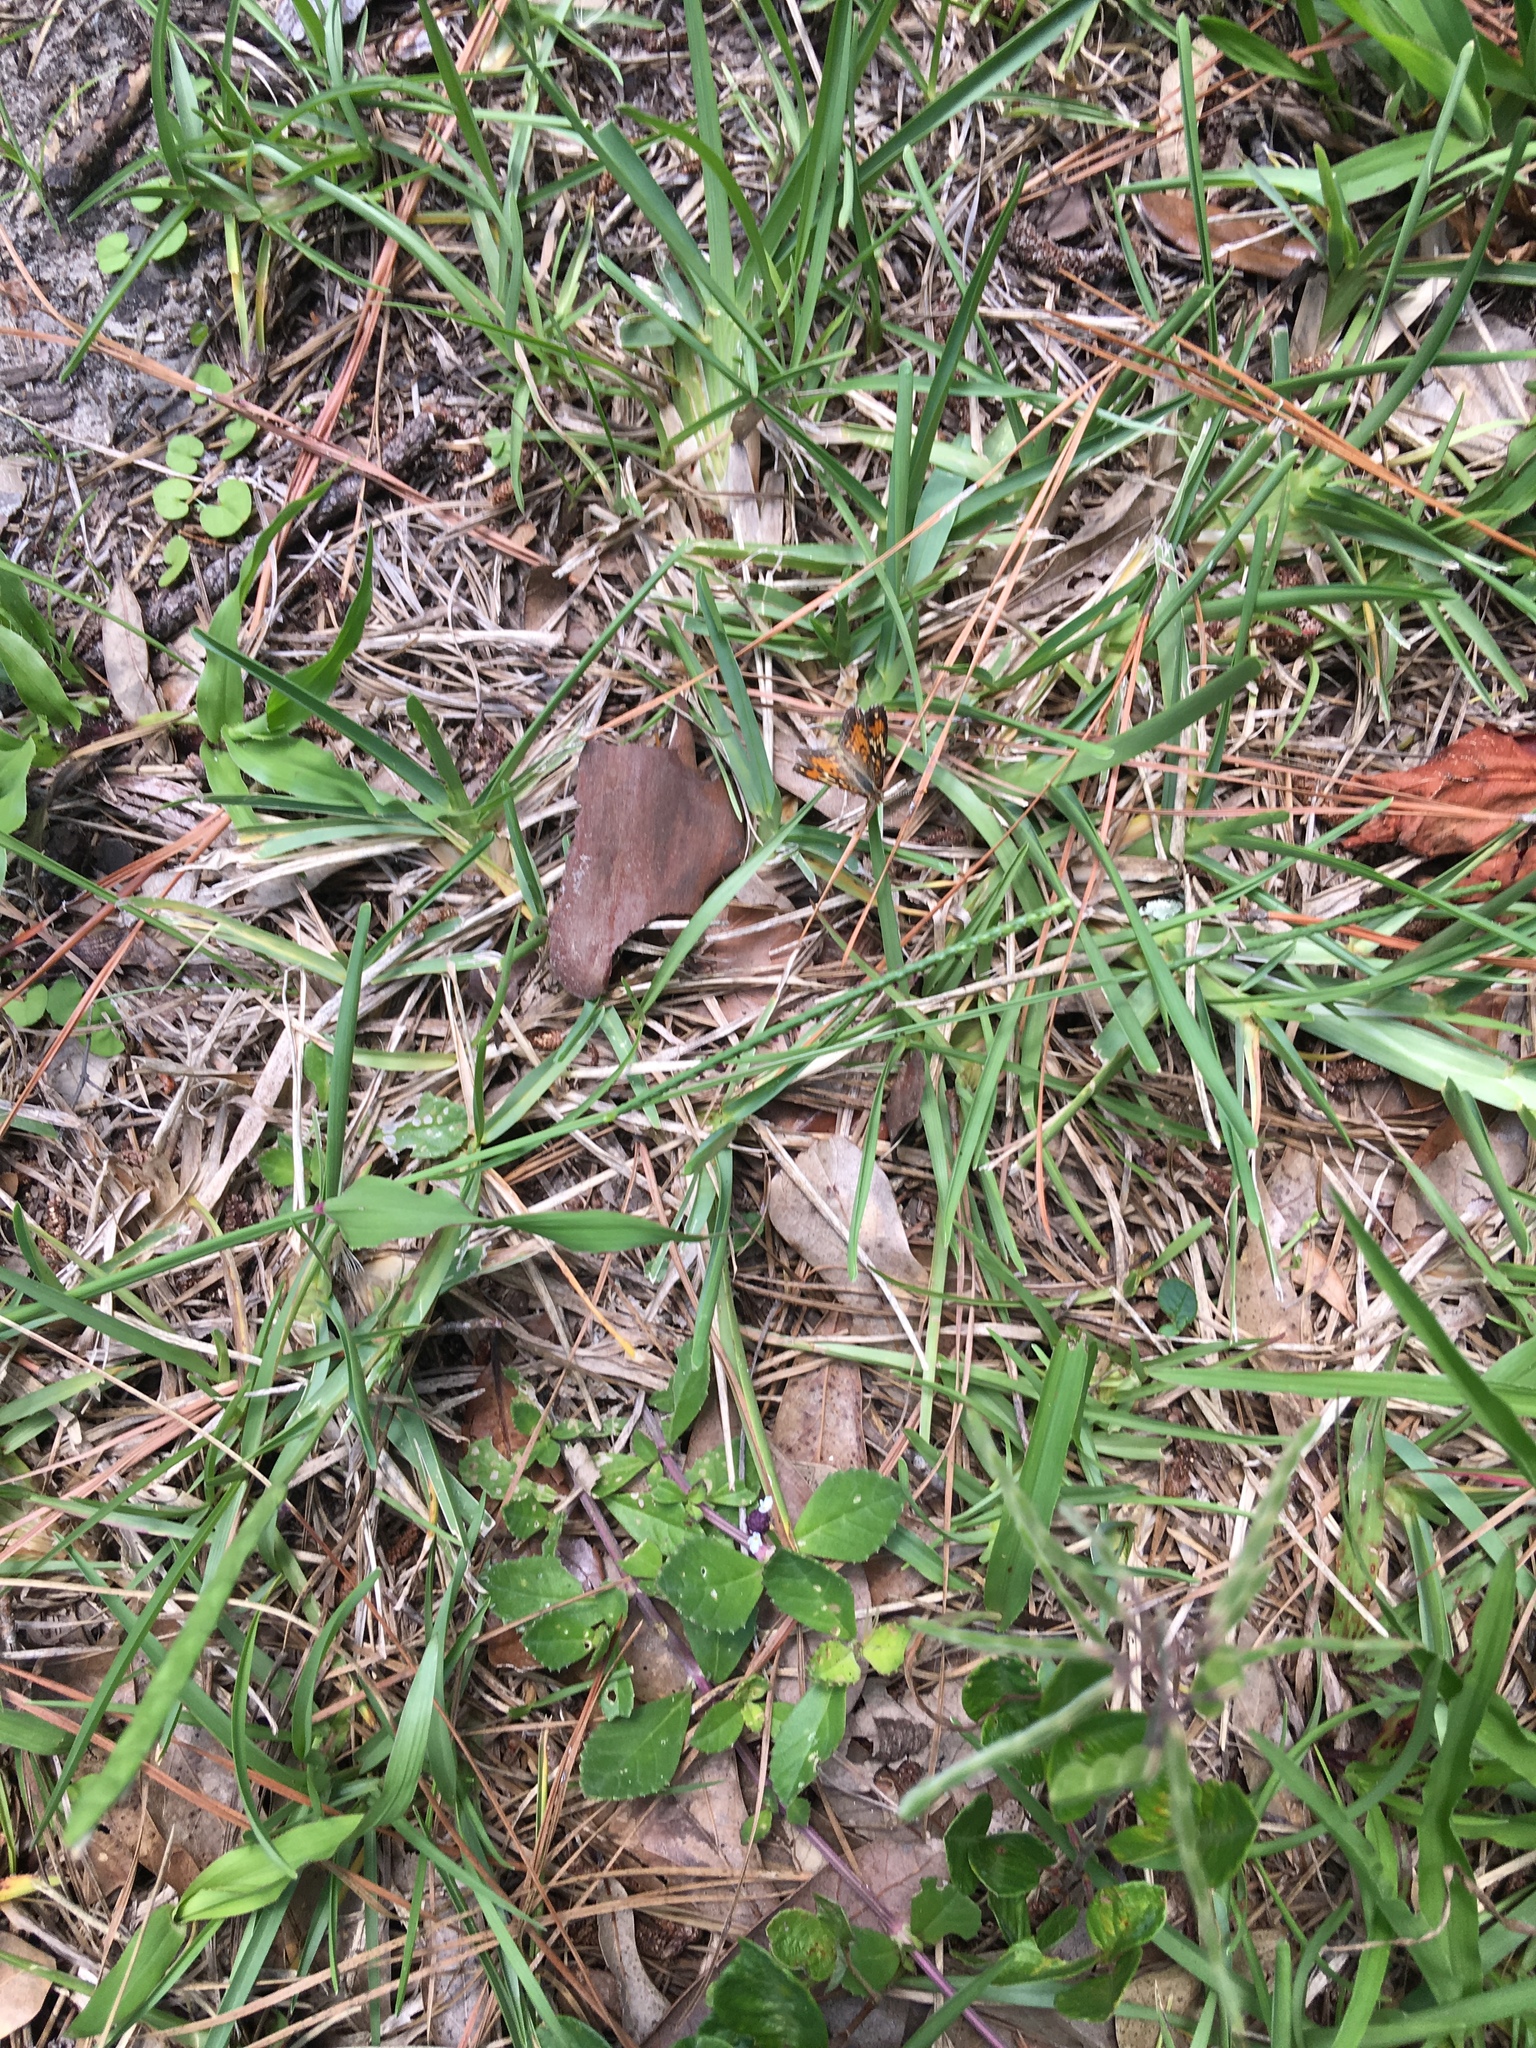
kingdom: Animalia
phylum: Arthropoda
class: Insecta
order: Lepidoptera
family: Nymphalidae
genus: Phyciodes
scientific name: Phyciodes phaon
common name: Phaon crescent
